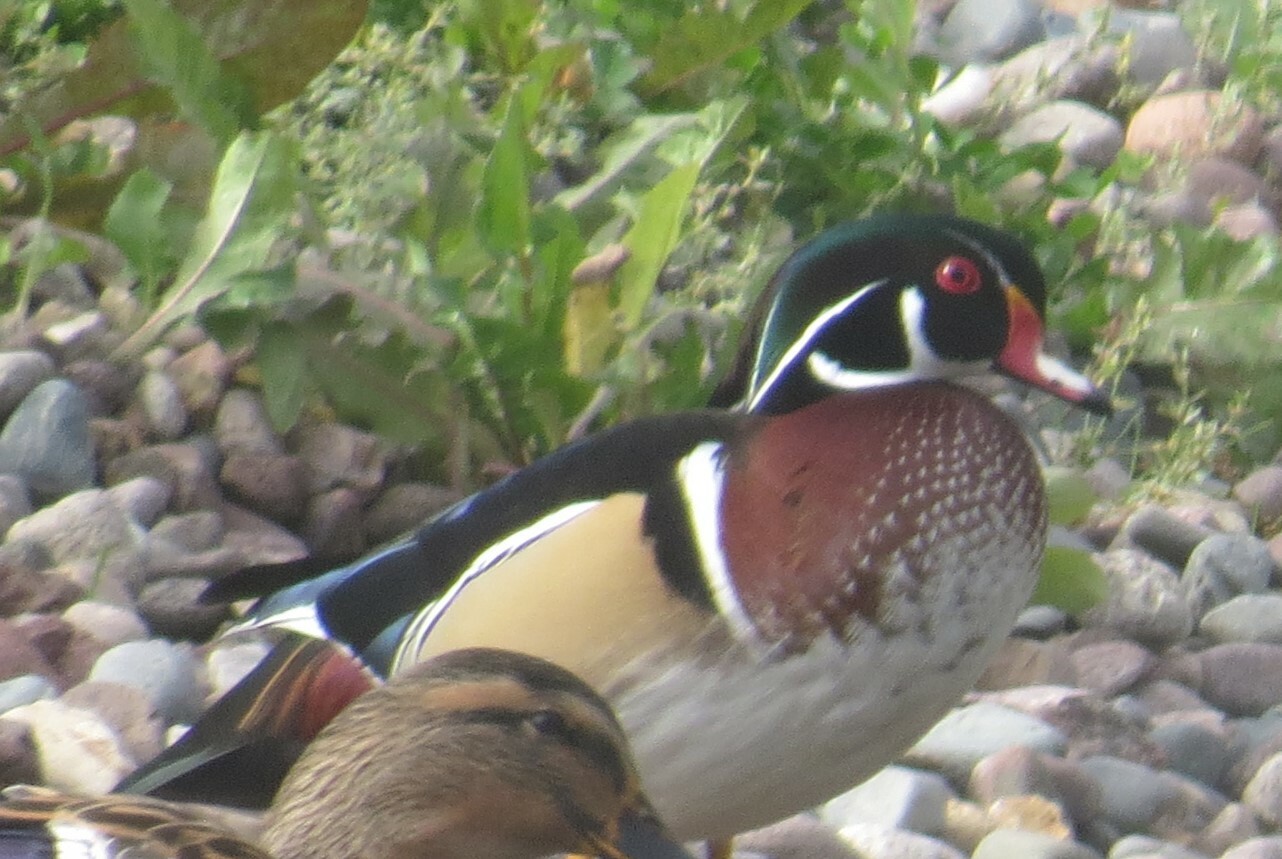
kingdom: Animalia
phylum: Chordata
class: Aves
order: Anseriformes
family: Anatidae
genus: Aix
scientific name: Aix sponsa
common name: Wood duck
